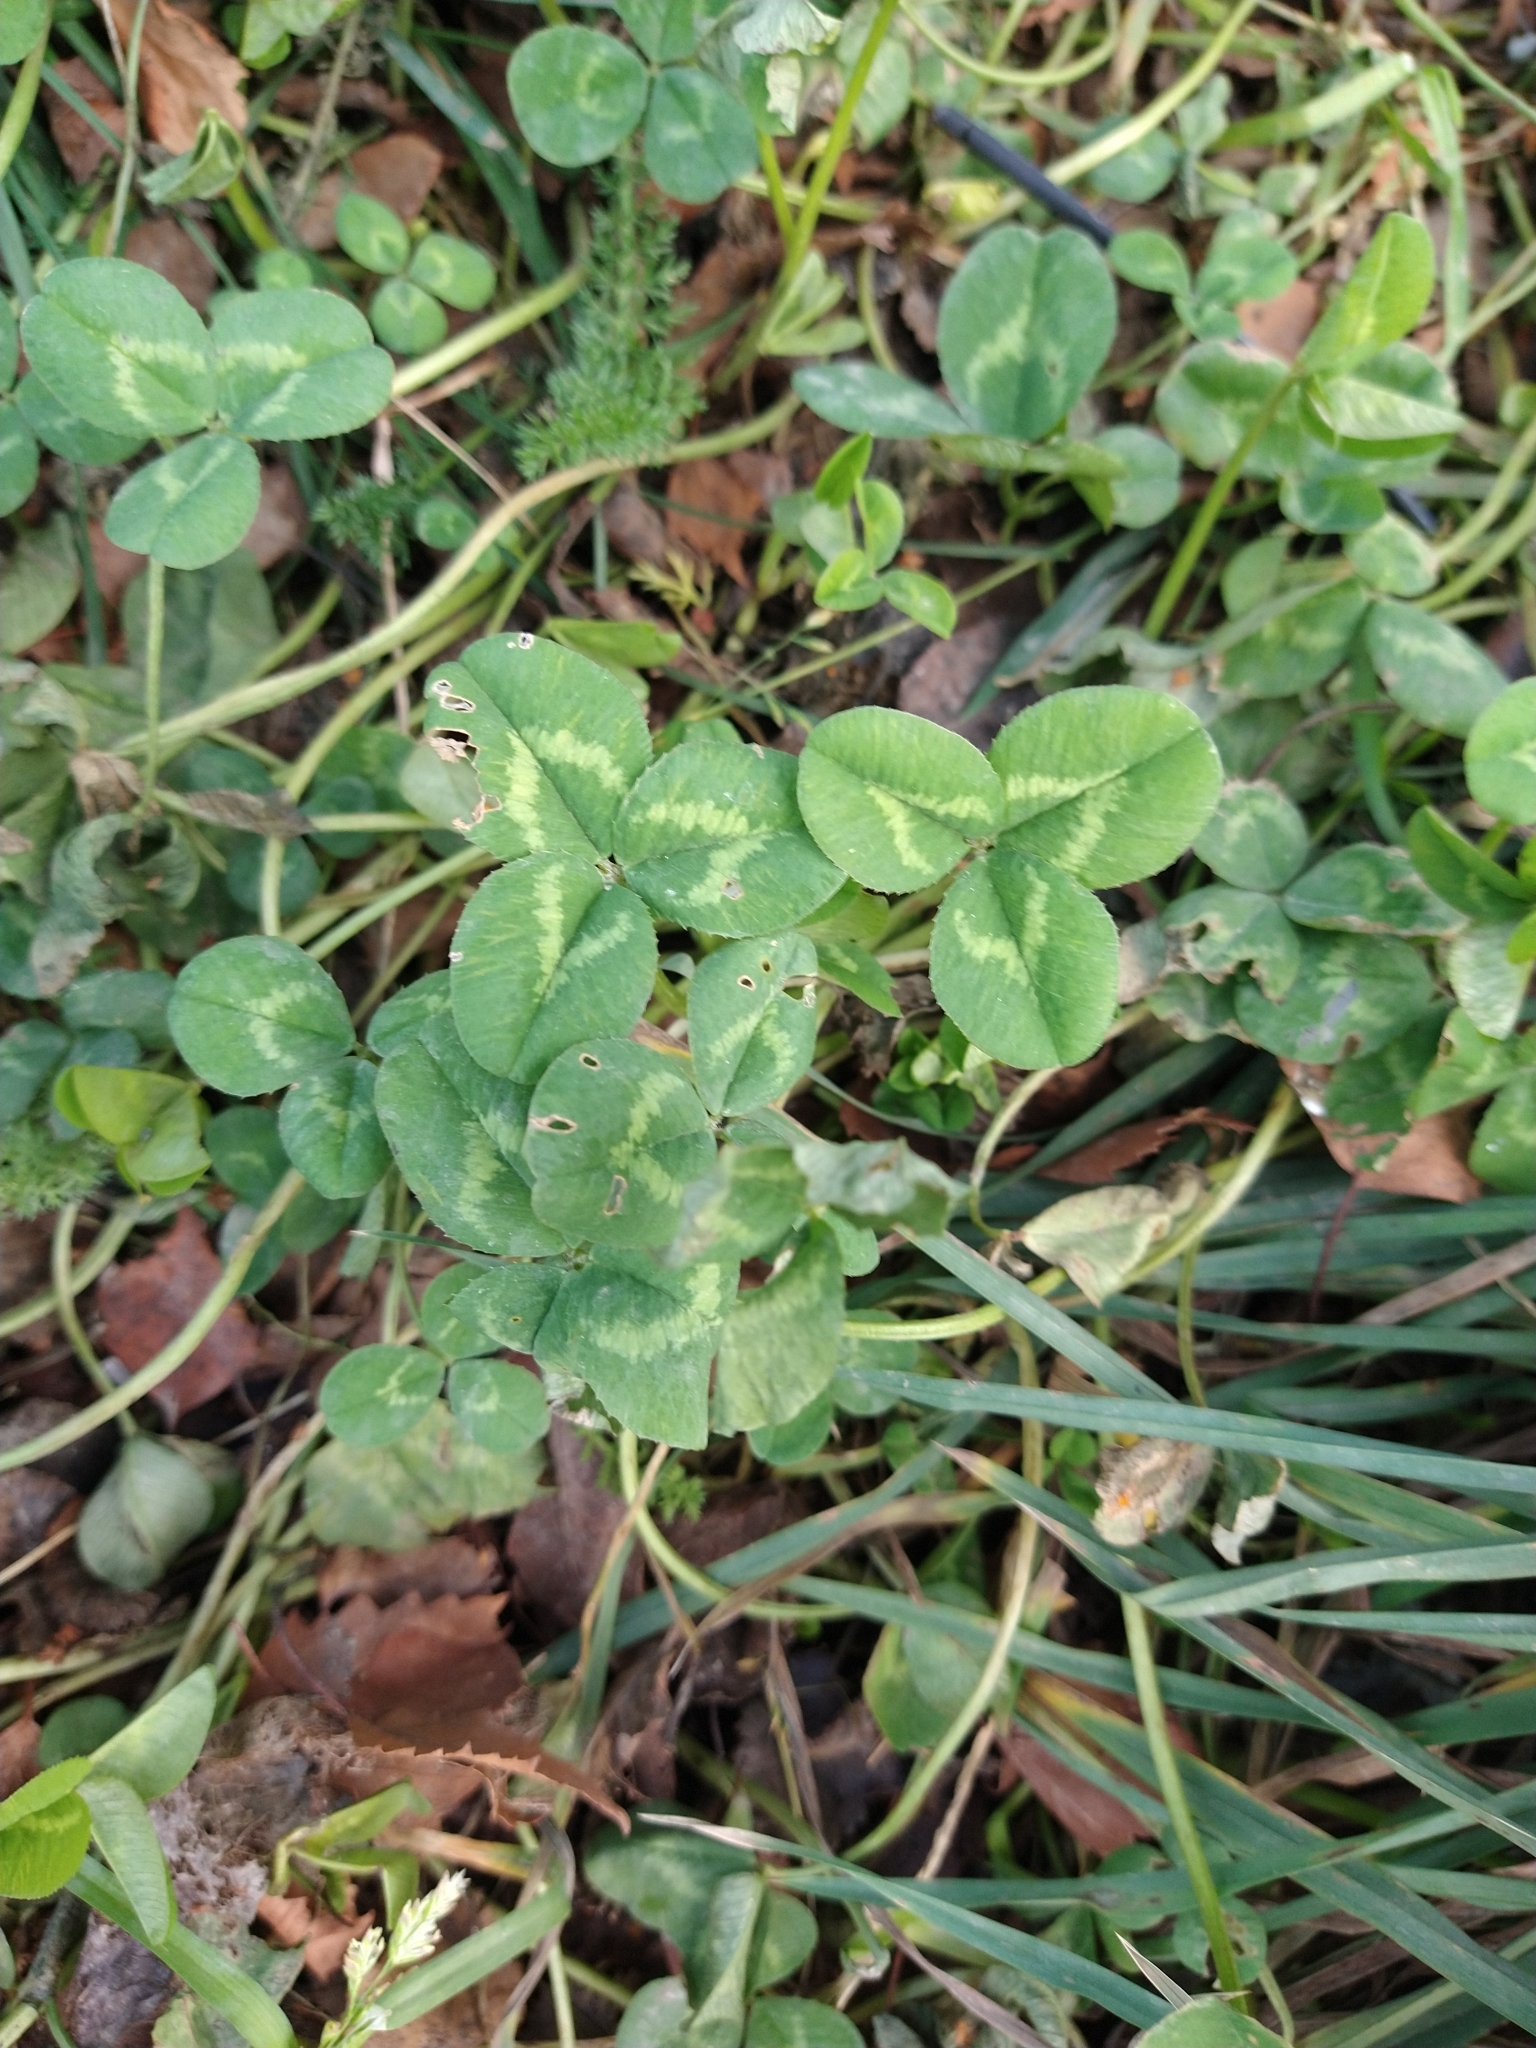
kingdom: Plantae
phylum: Tracheophyta
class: Magnoliopsida
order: Fabales
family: Fabaceae
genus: Trifolium
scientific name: Trifolium repens
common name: White clover
